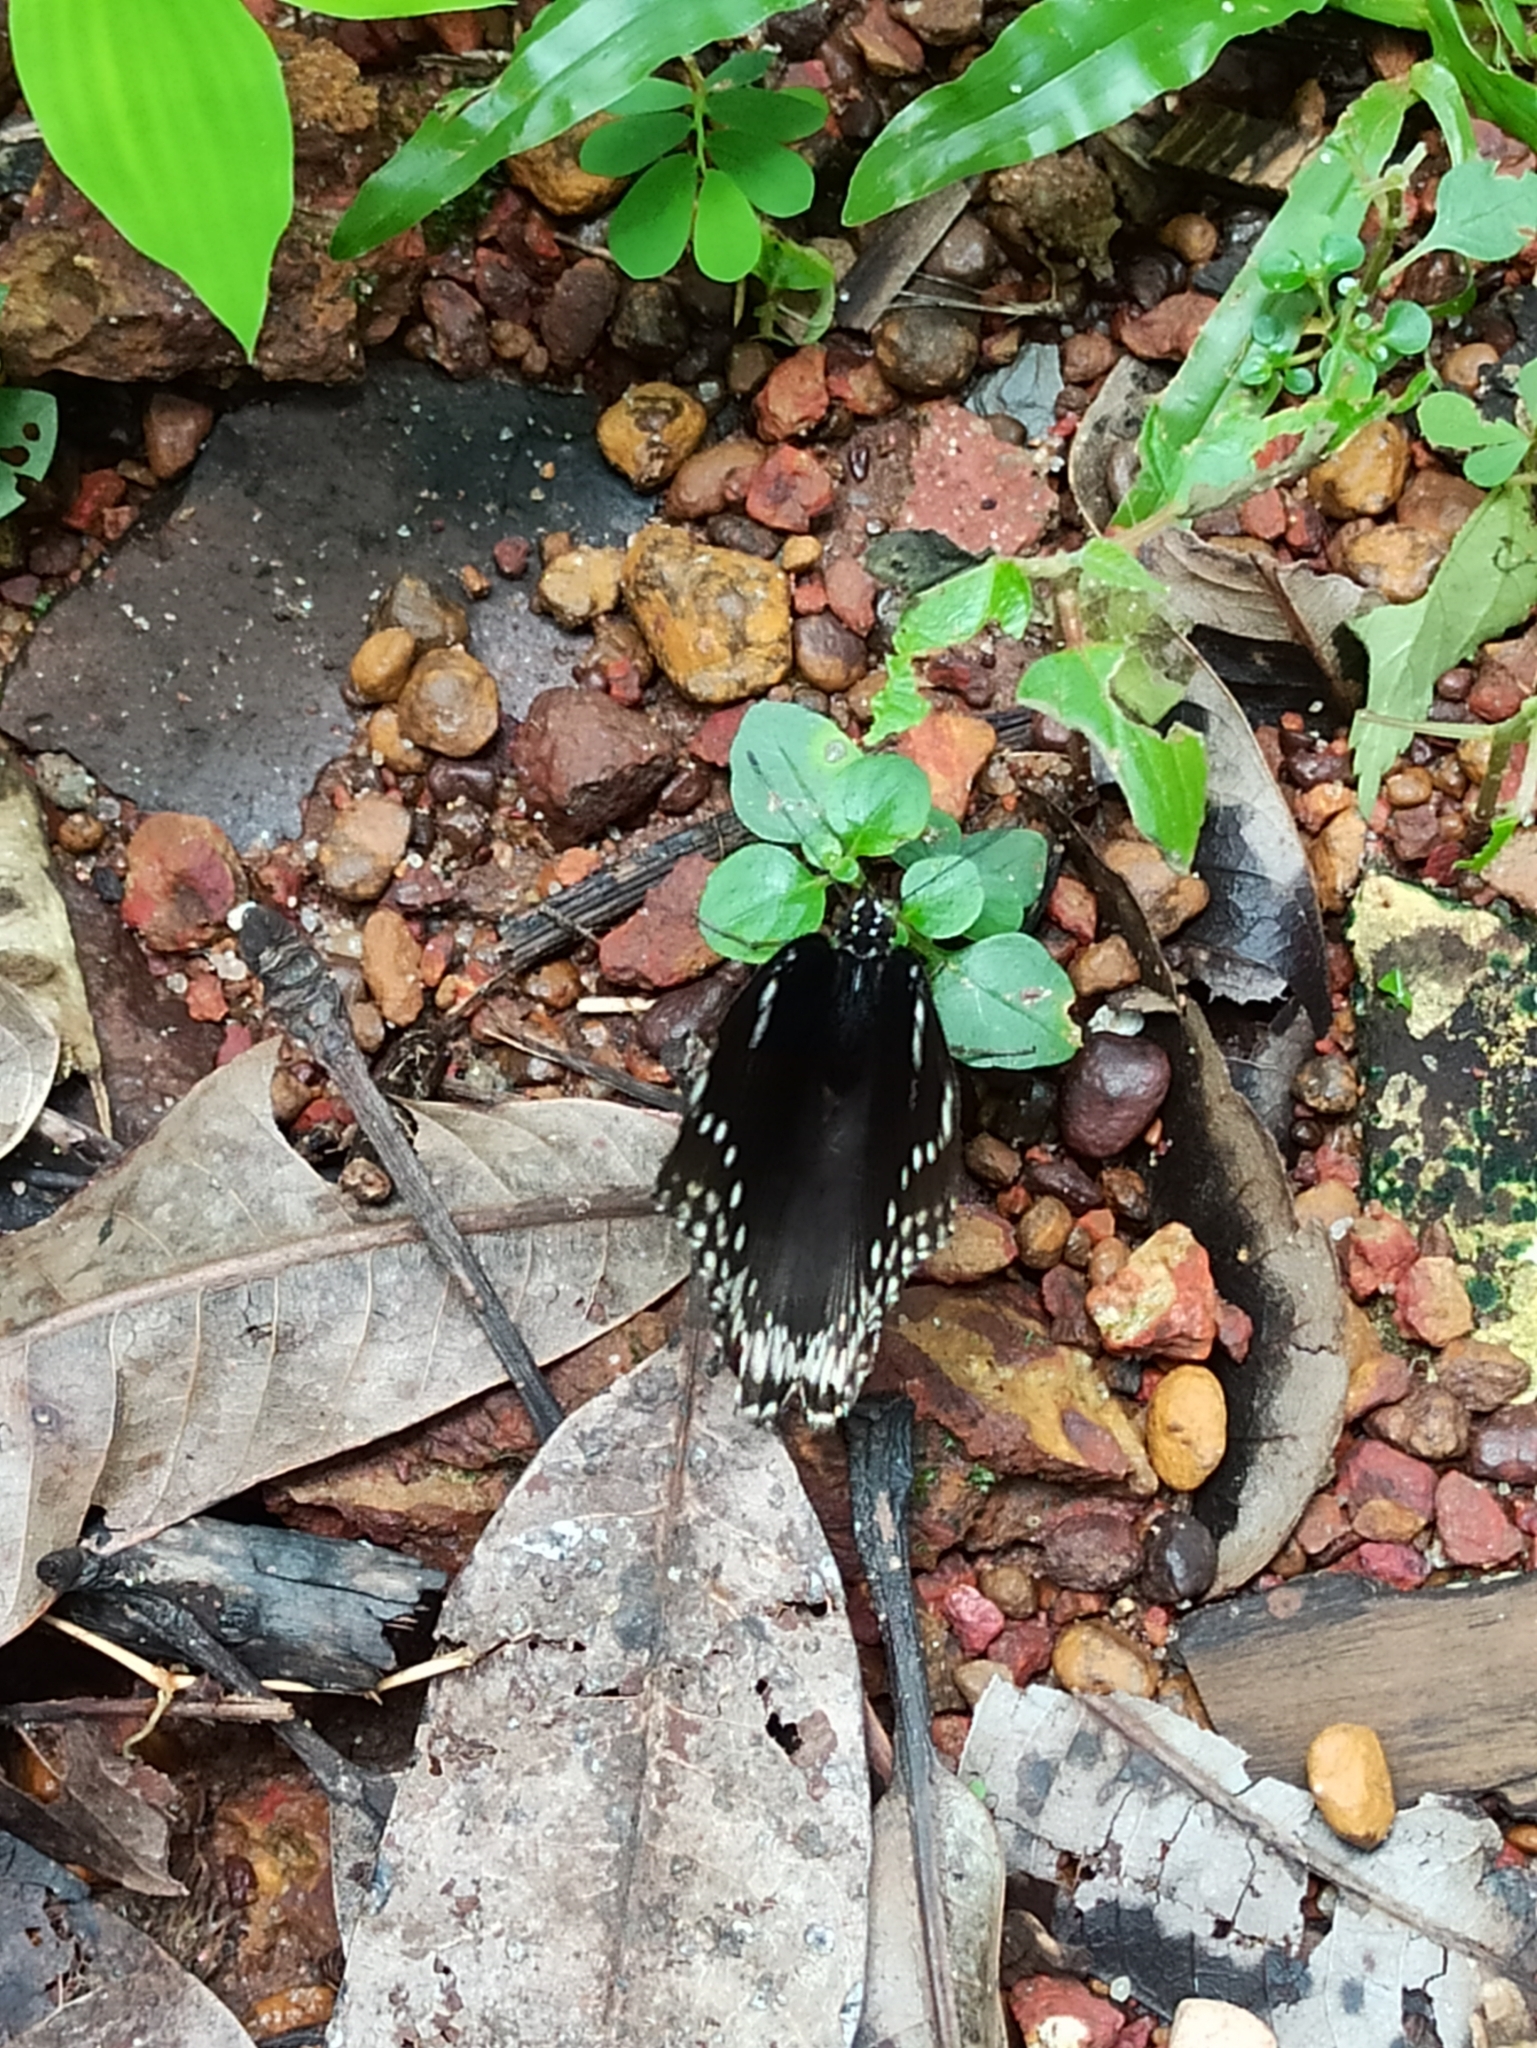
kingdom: Animalia
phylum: Arthropoda
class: Insecta
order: Lepidoptera
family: Nymphalidae
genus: Hypolimnas
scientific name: Hypolimnas bolina
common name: Great eggfly
